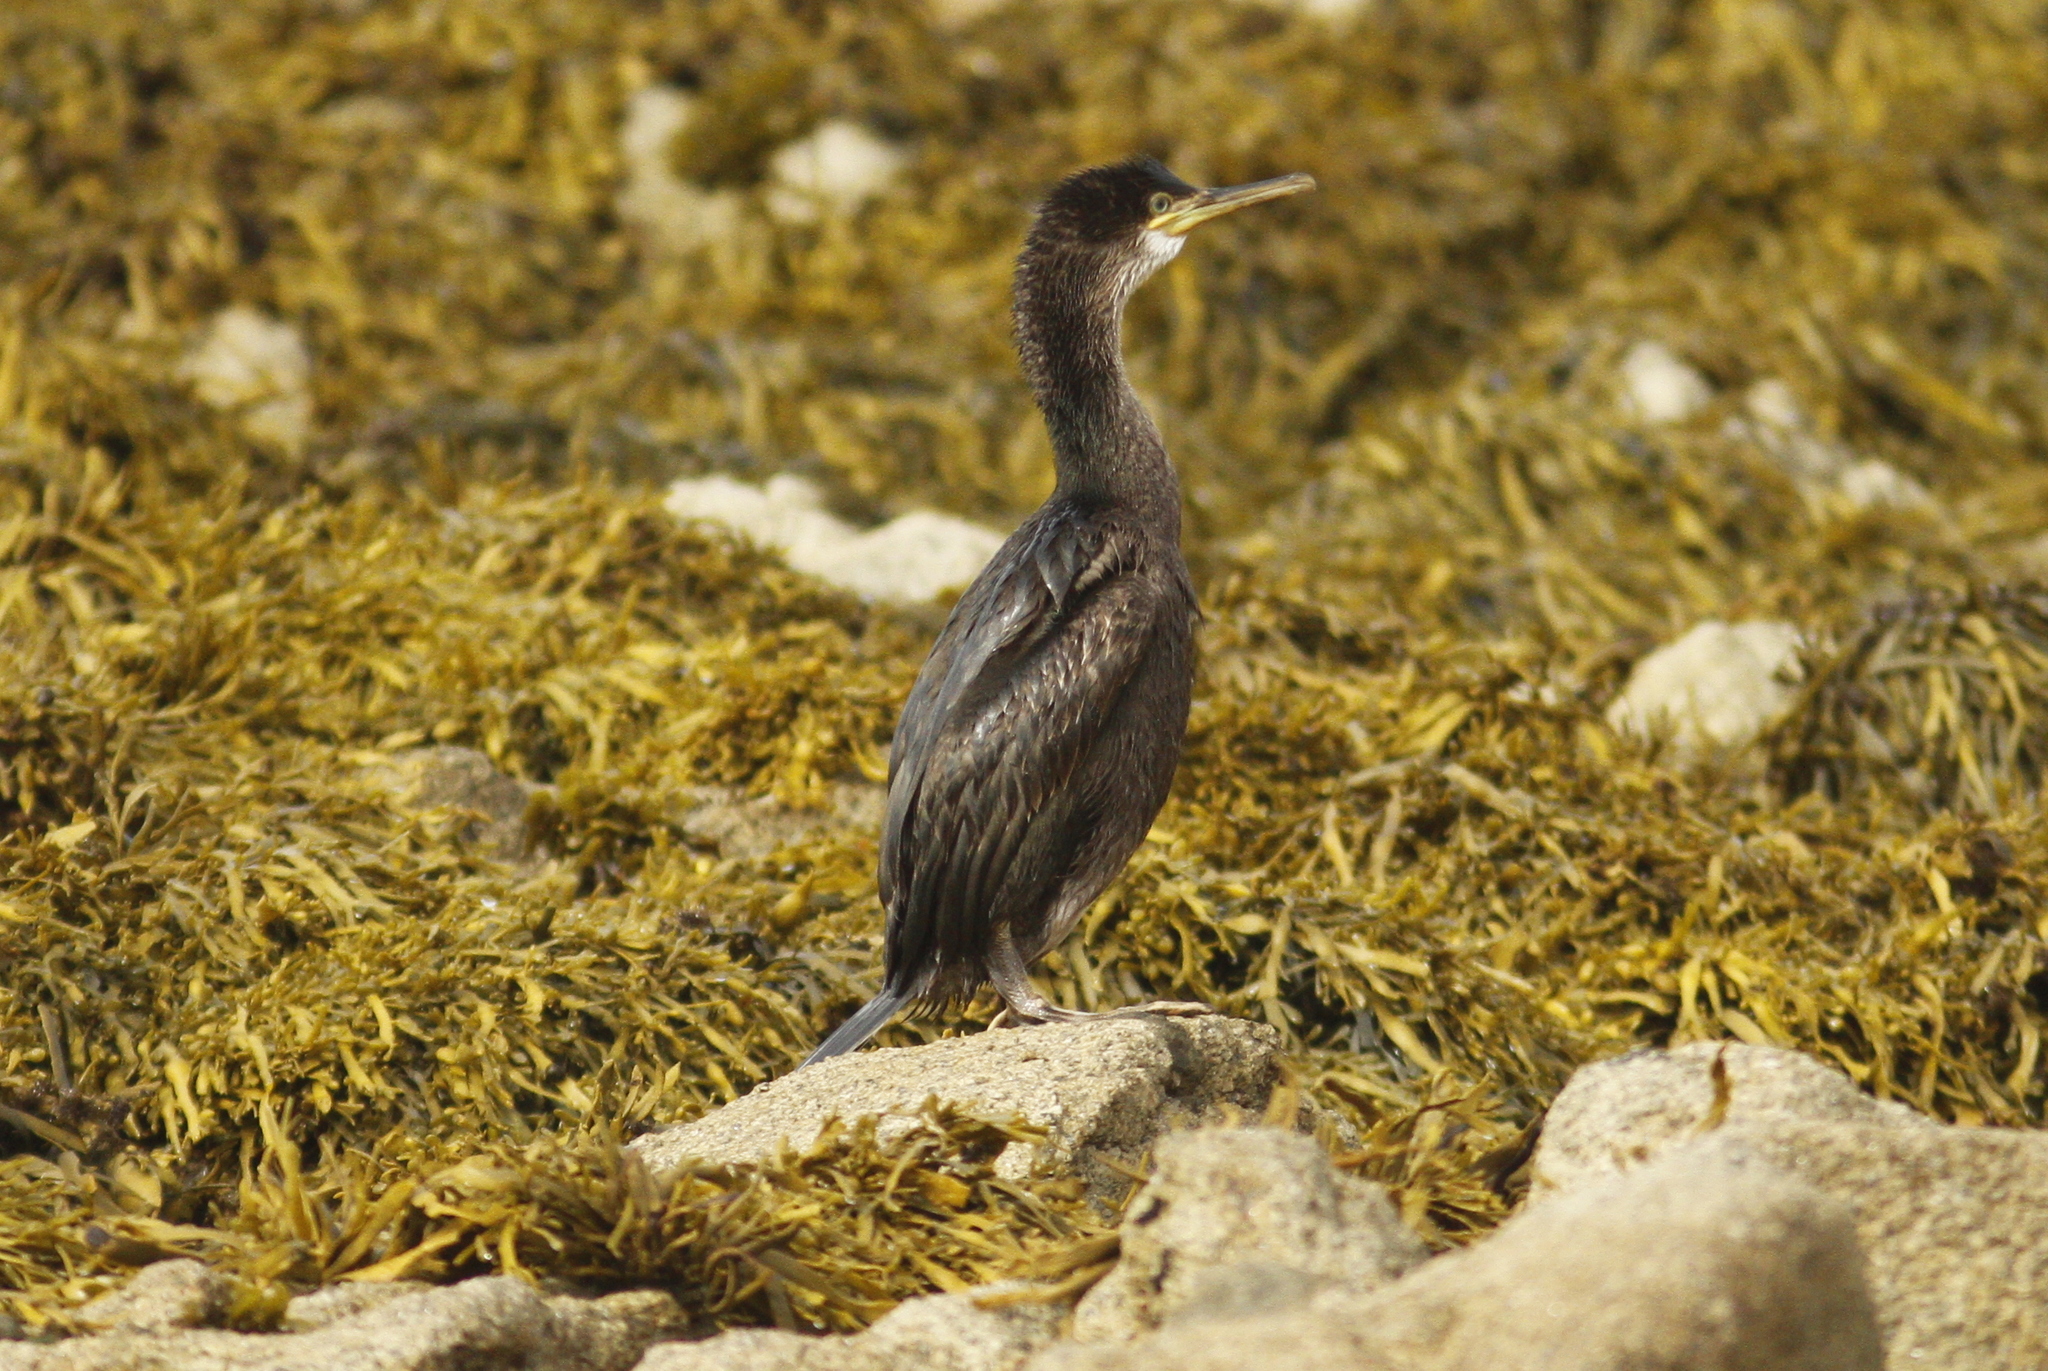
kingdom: Animalia
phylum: Chordata
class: Aves
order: Suliformes
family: Phalacrocoracidae
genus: Phalacrocorax
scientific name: Phalacrocorax aristotelis
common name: European shag
